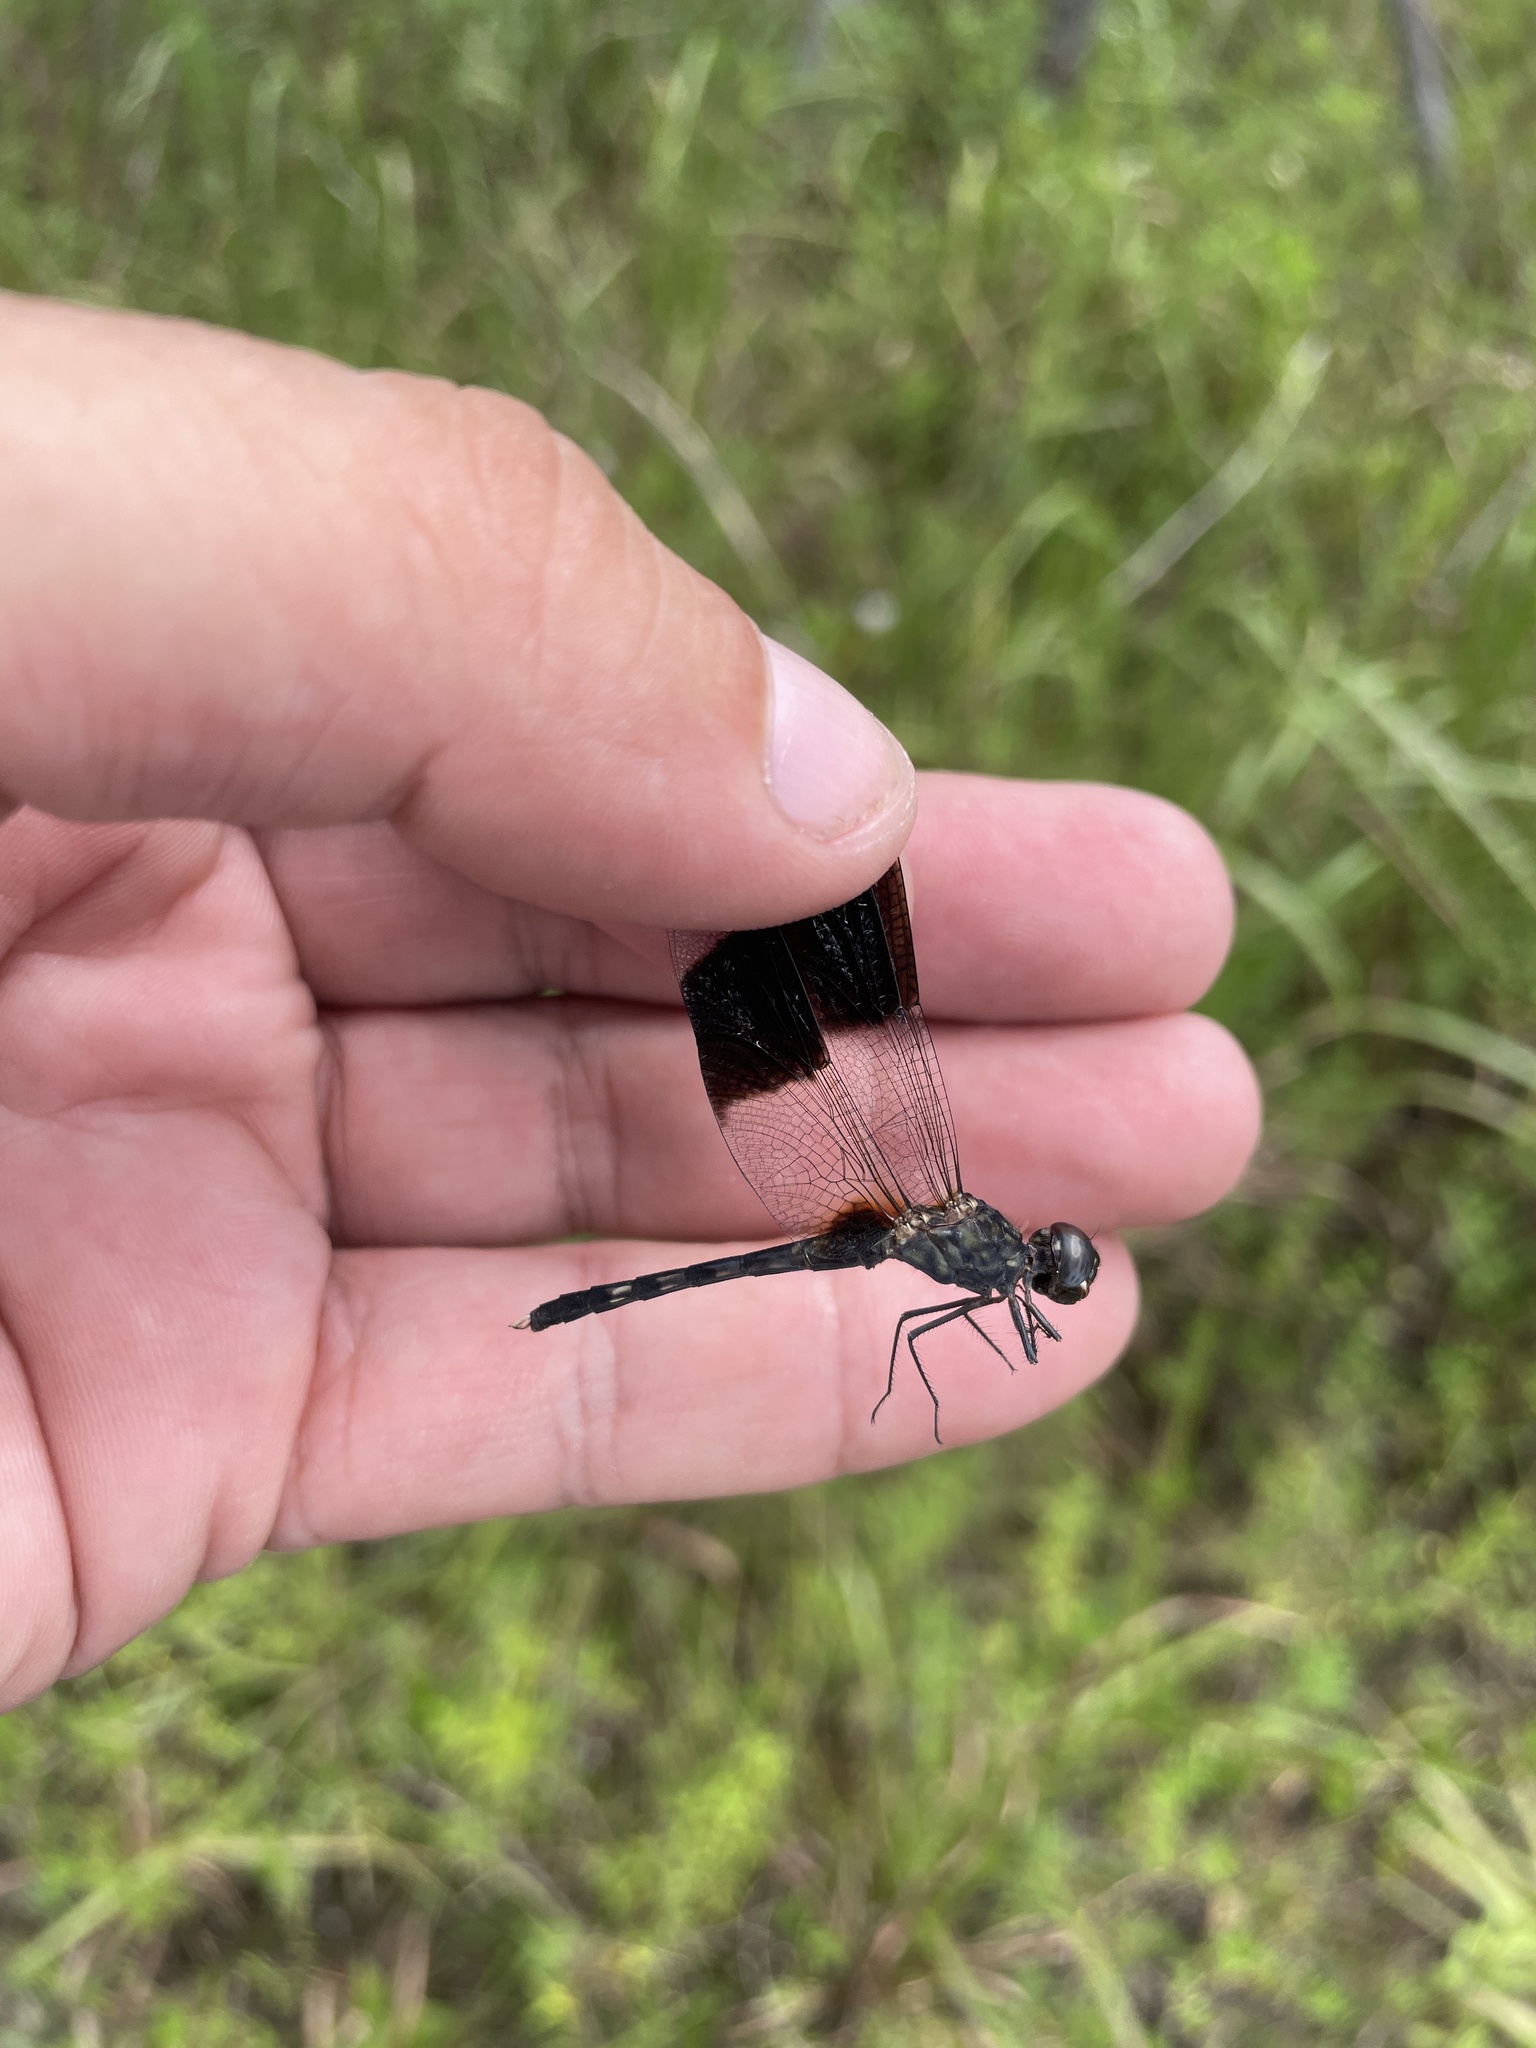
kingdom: Animalia
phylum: Arthropoda
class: Insecta
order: Odonata
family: Libellulidae
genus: Erythrodiplax
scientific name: Erythrodiplax umbrata
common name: Band-winged dragonlet
